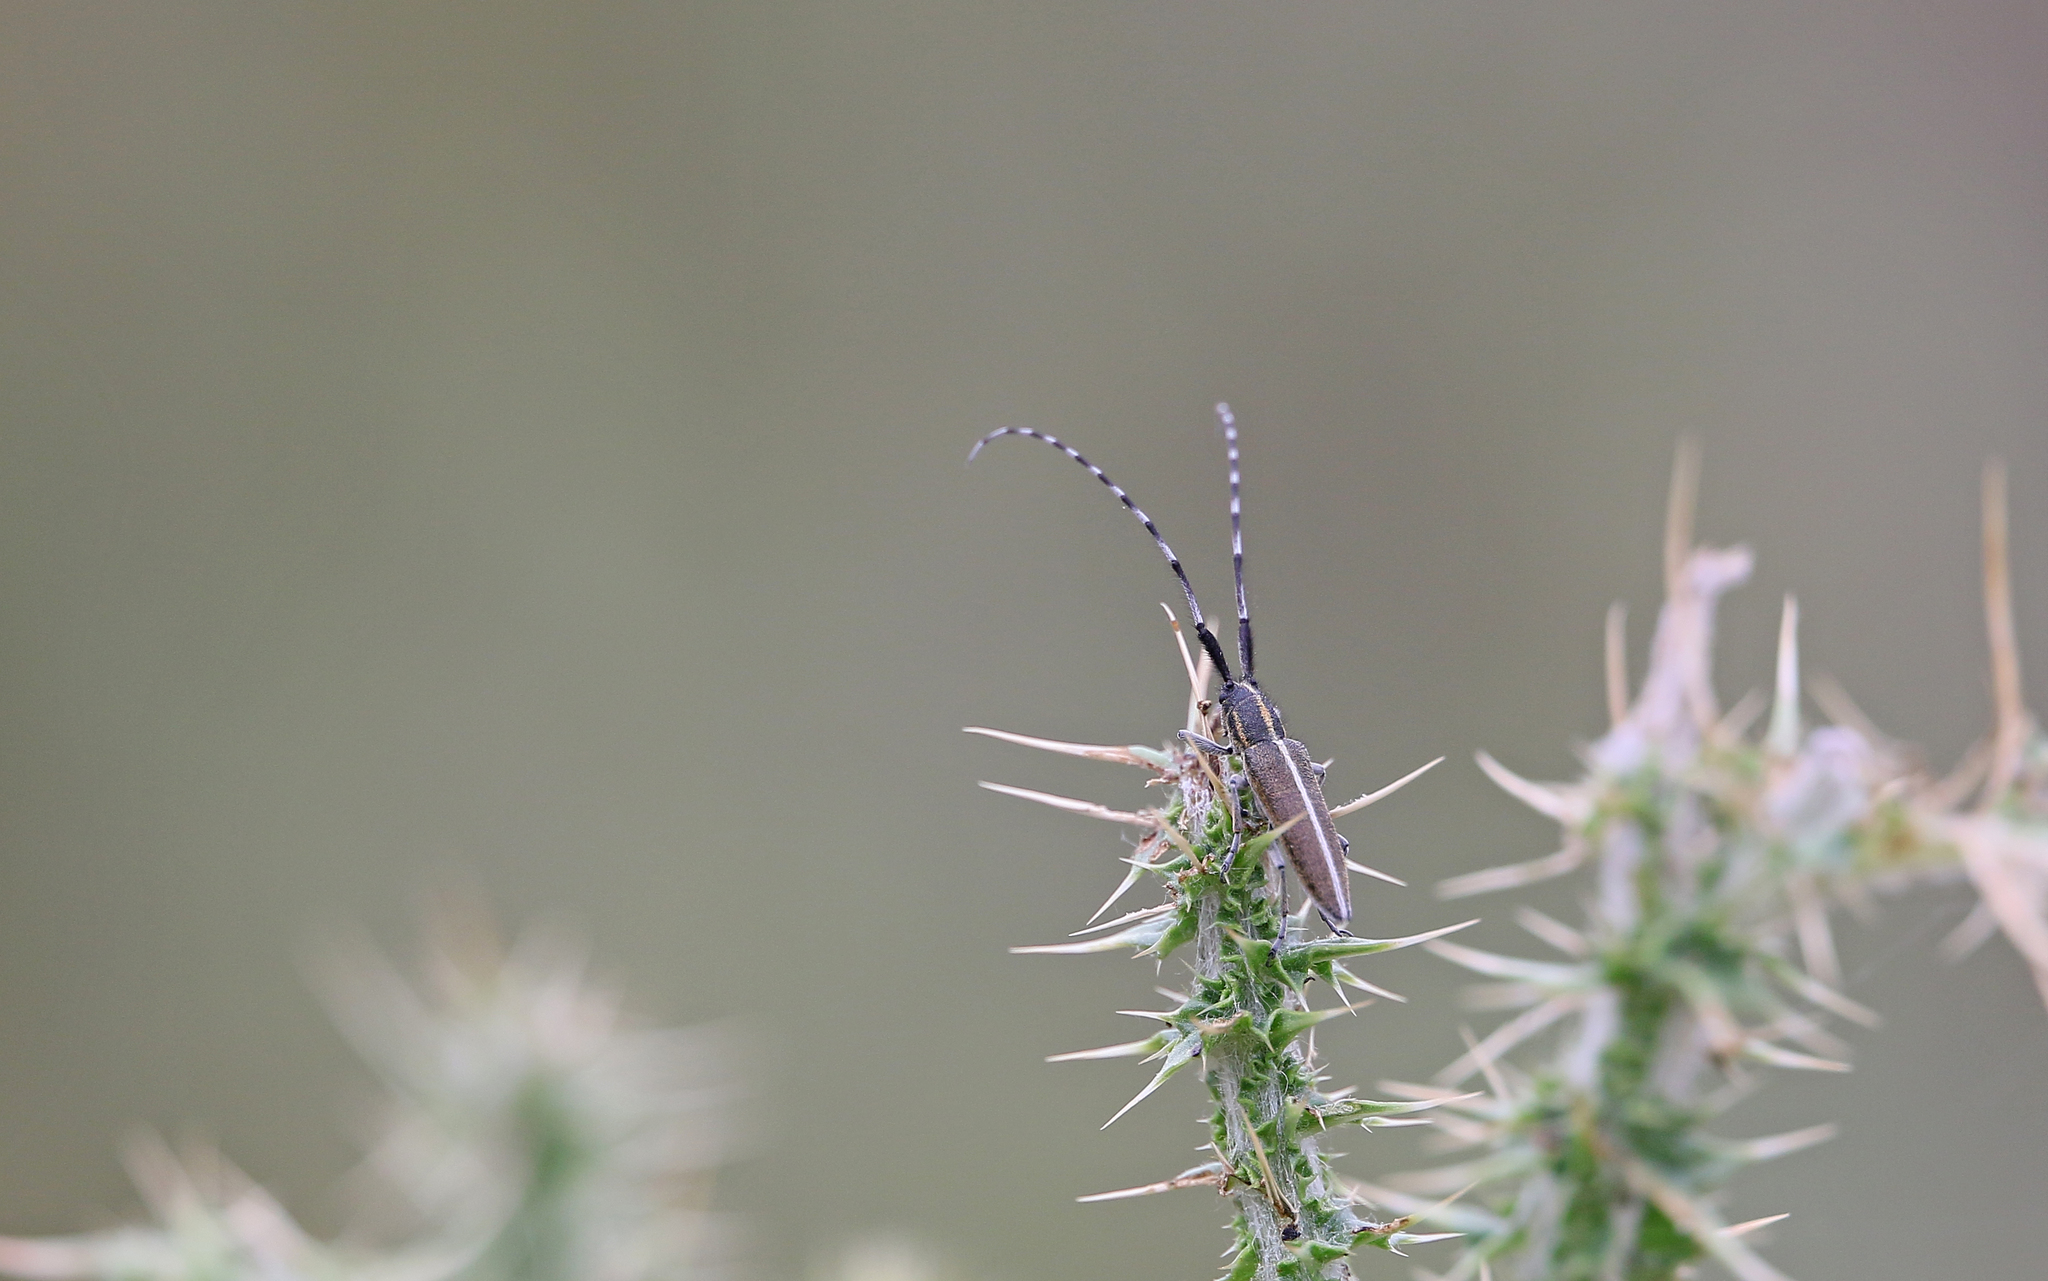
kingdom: Animalia
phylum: Arthropoda
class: Insecta
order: Coleoptera
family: Cerambycidae
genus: Agapanthia
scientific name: Agapanthia suturalis
